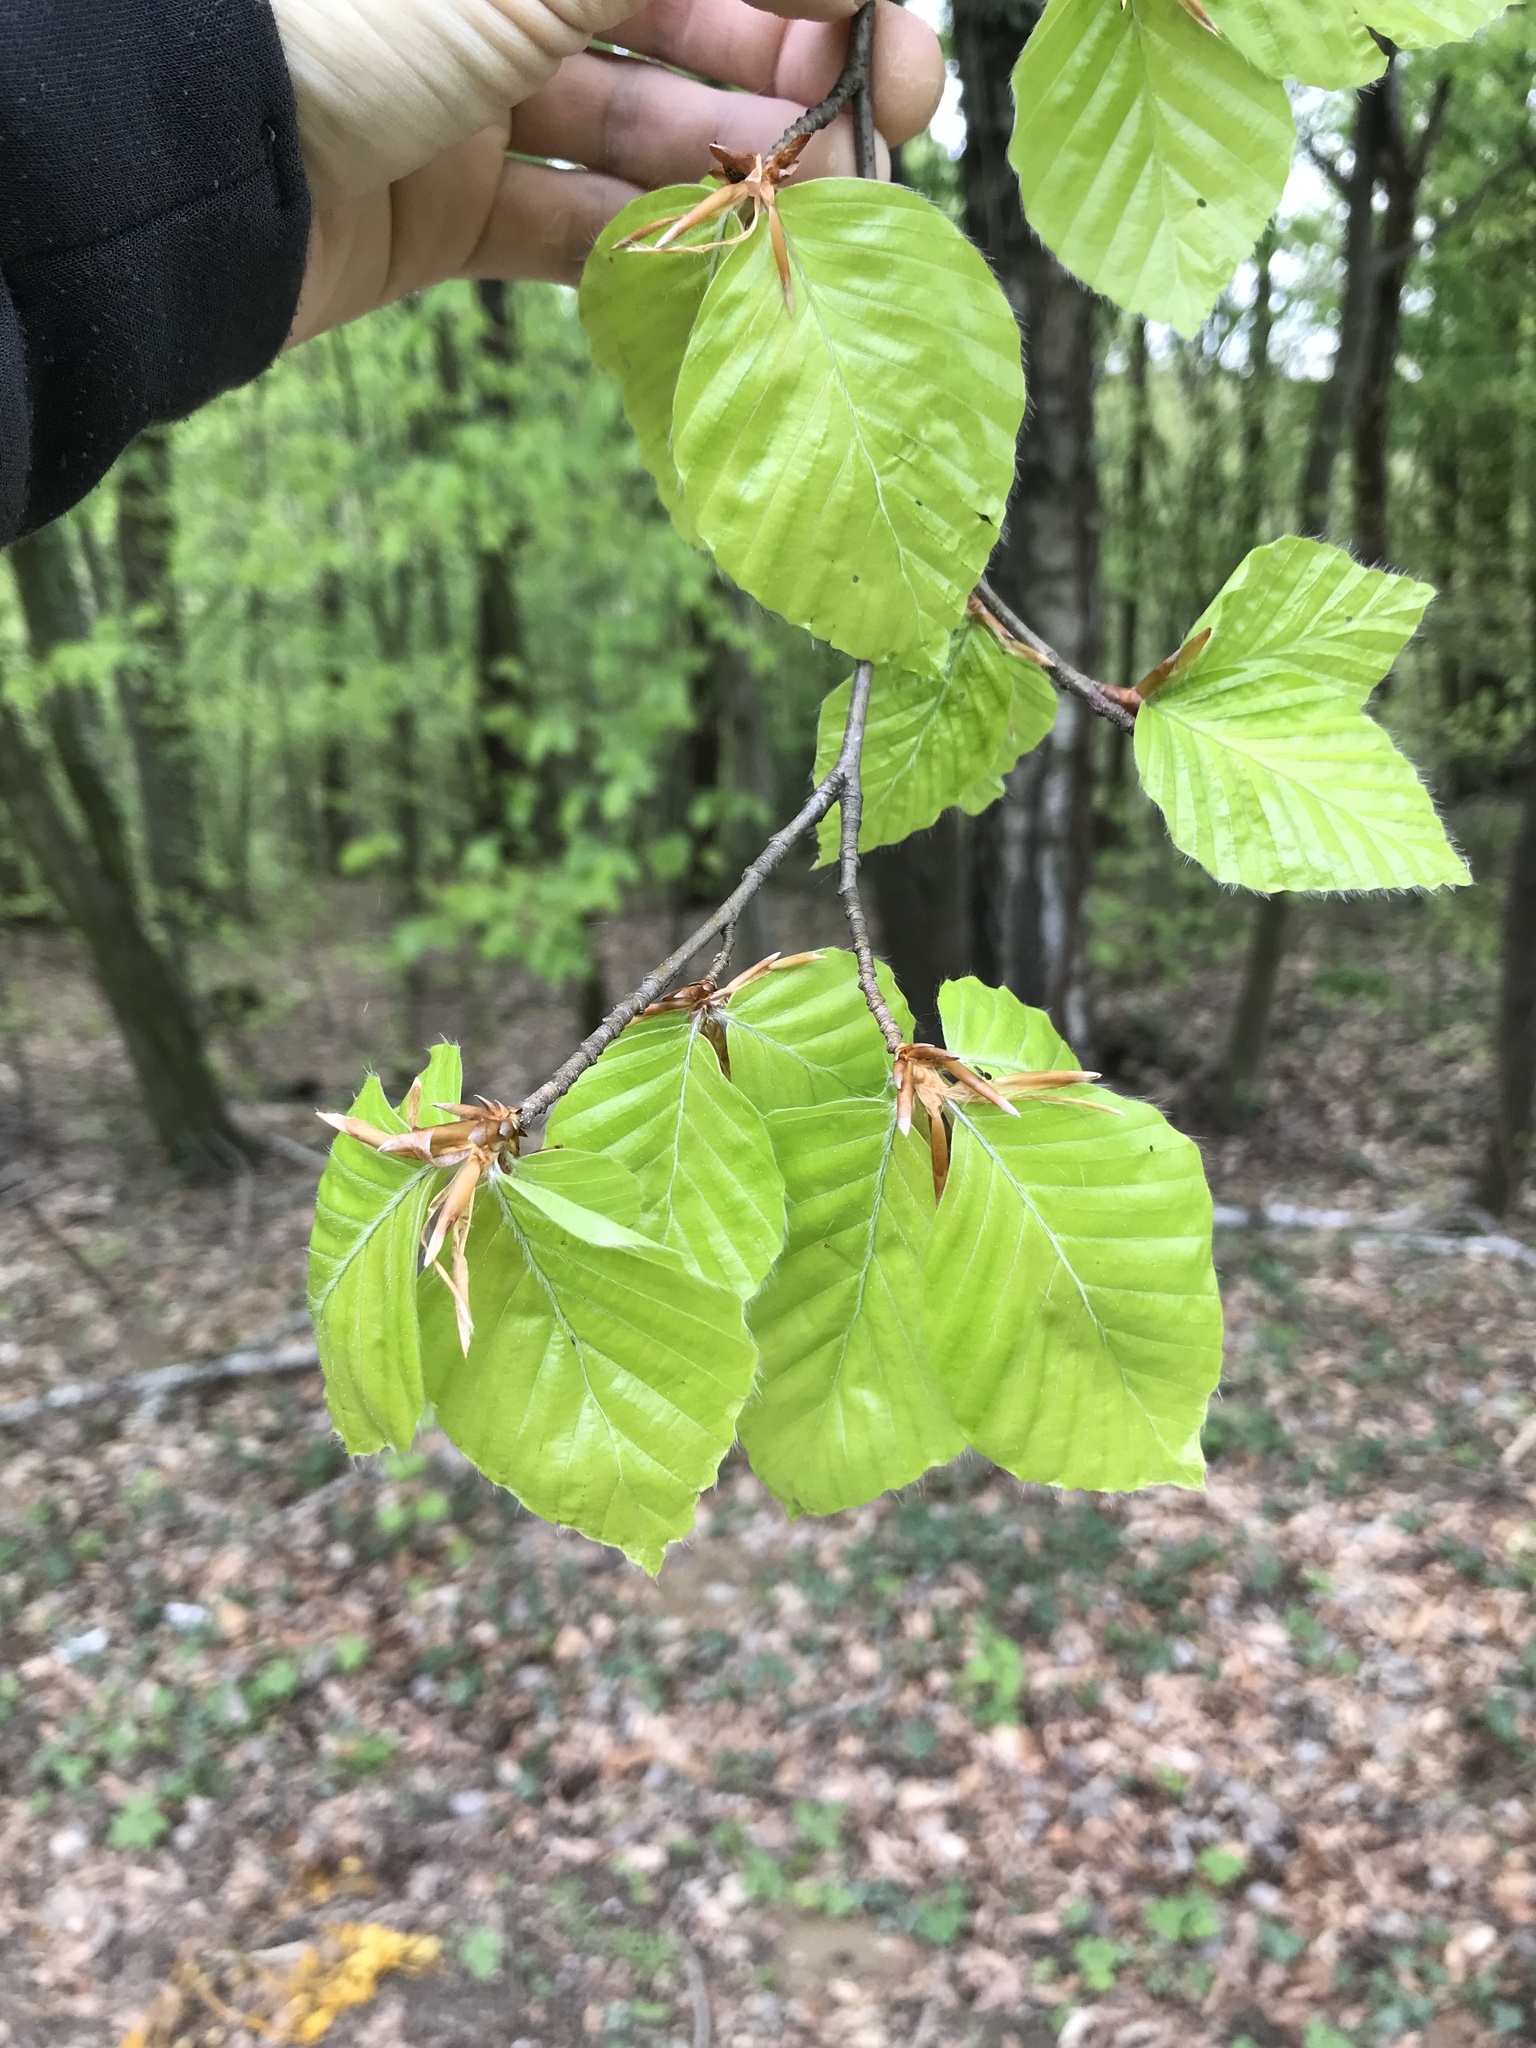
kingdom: Plantae
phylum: Tracheophyta
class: Magnoliopsida
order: Fagales
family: Fagaceae
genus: Fagus
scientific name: Fagus sylvatica
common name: Beech
